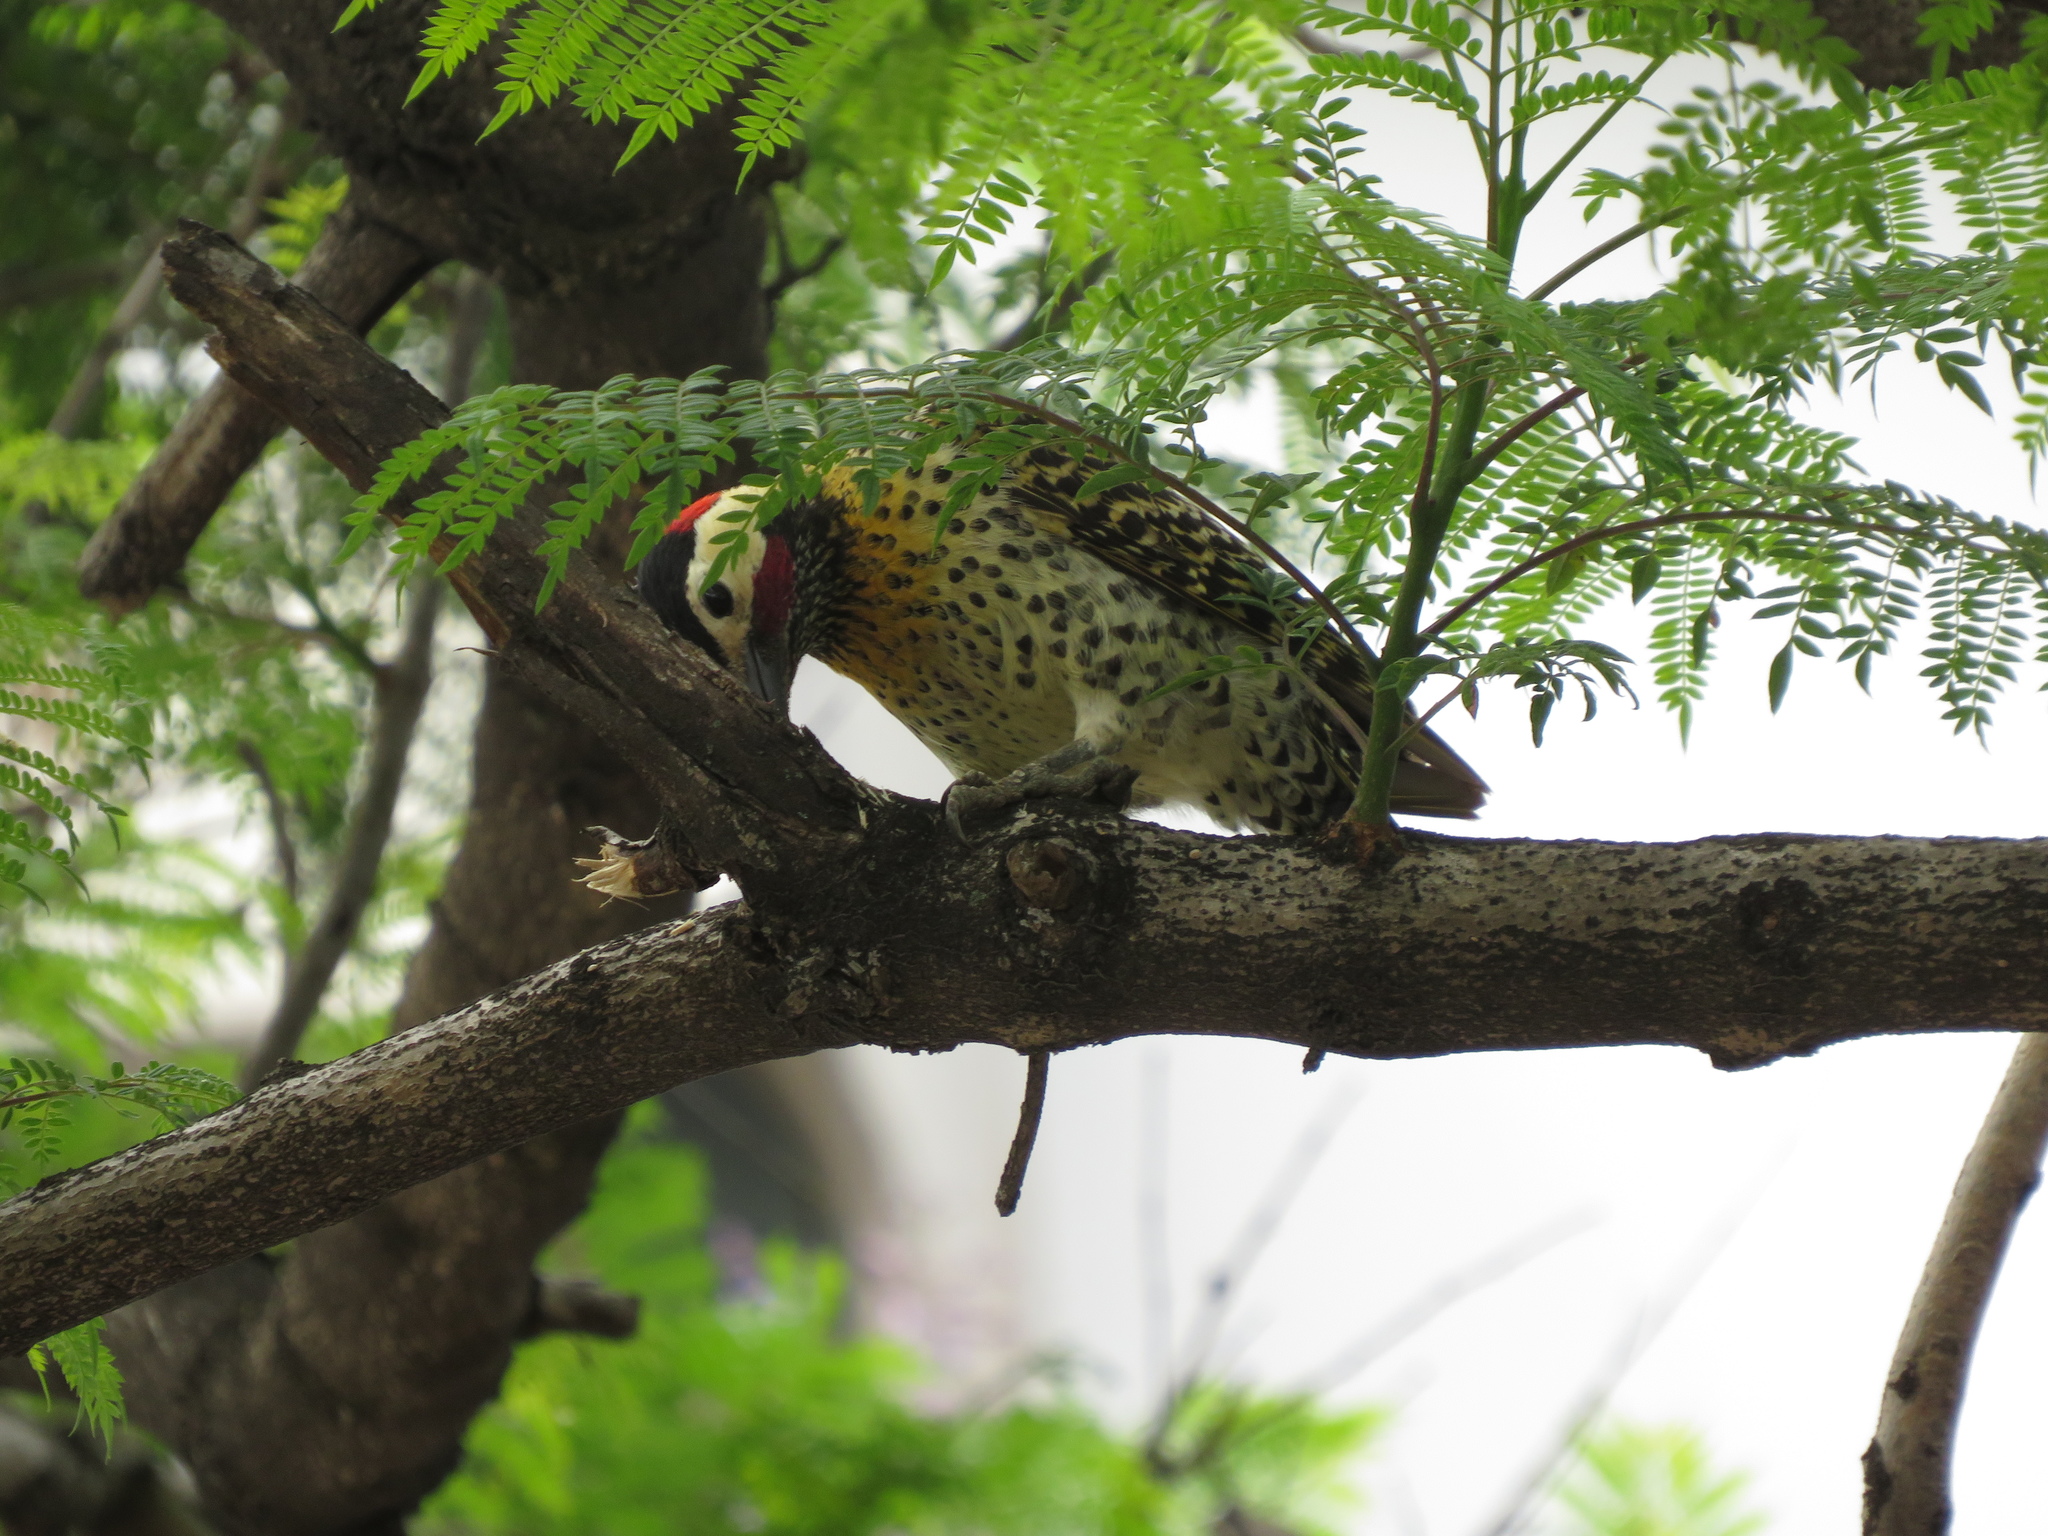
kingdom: Animalia
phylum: Chordata
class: Aves
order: Piciformes
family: Picidae
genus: Colaptes
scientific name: Colaptes melanochloros
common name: Green-barred woodpecker
